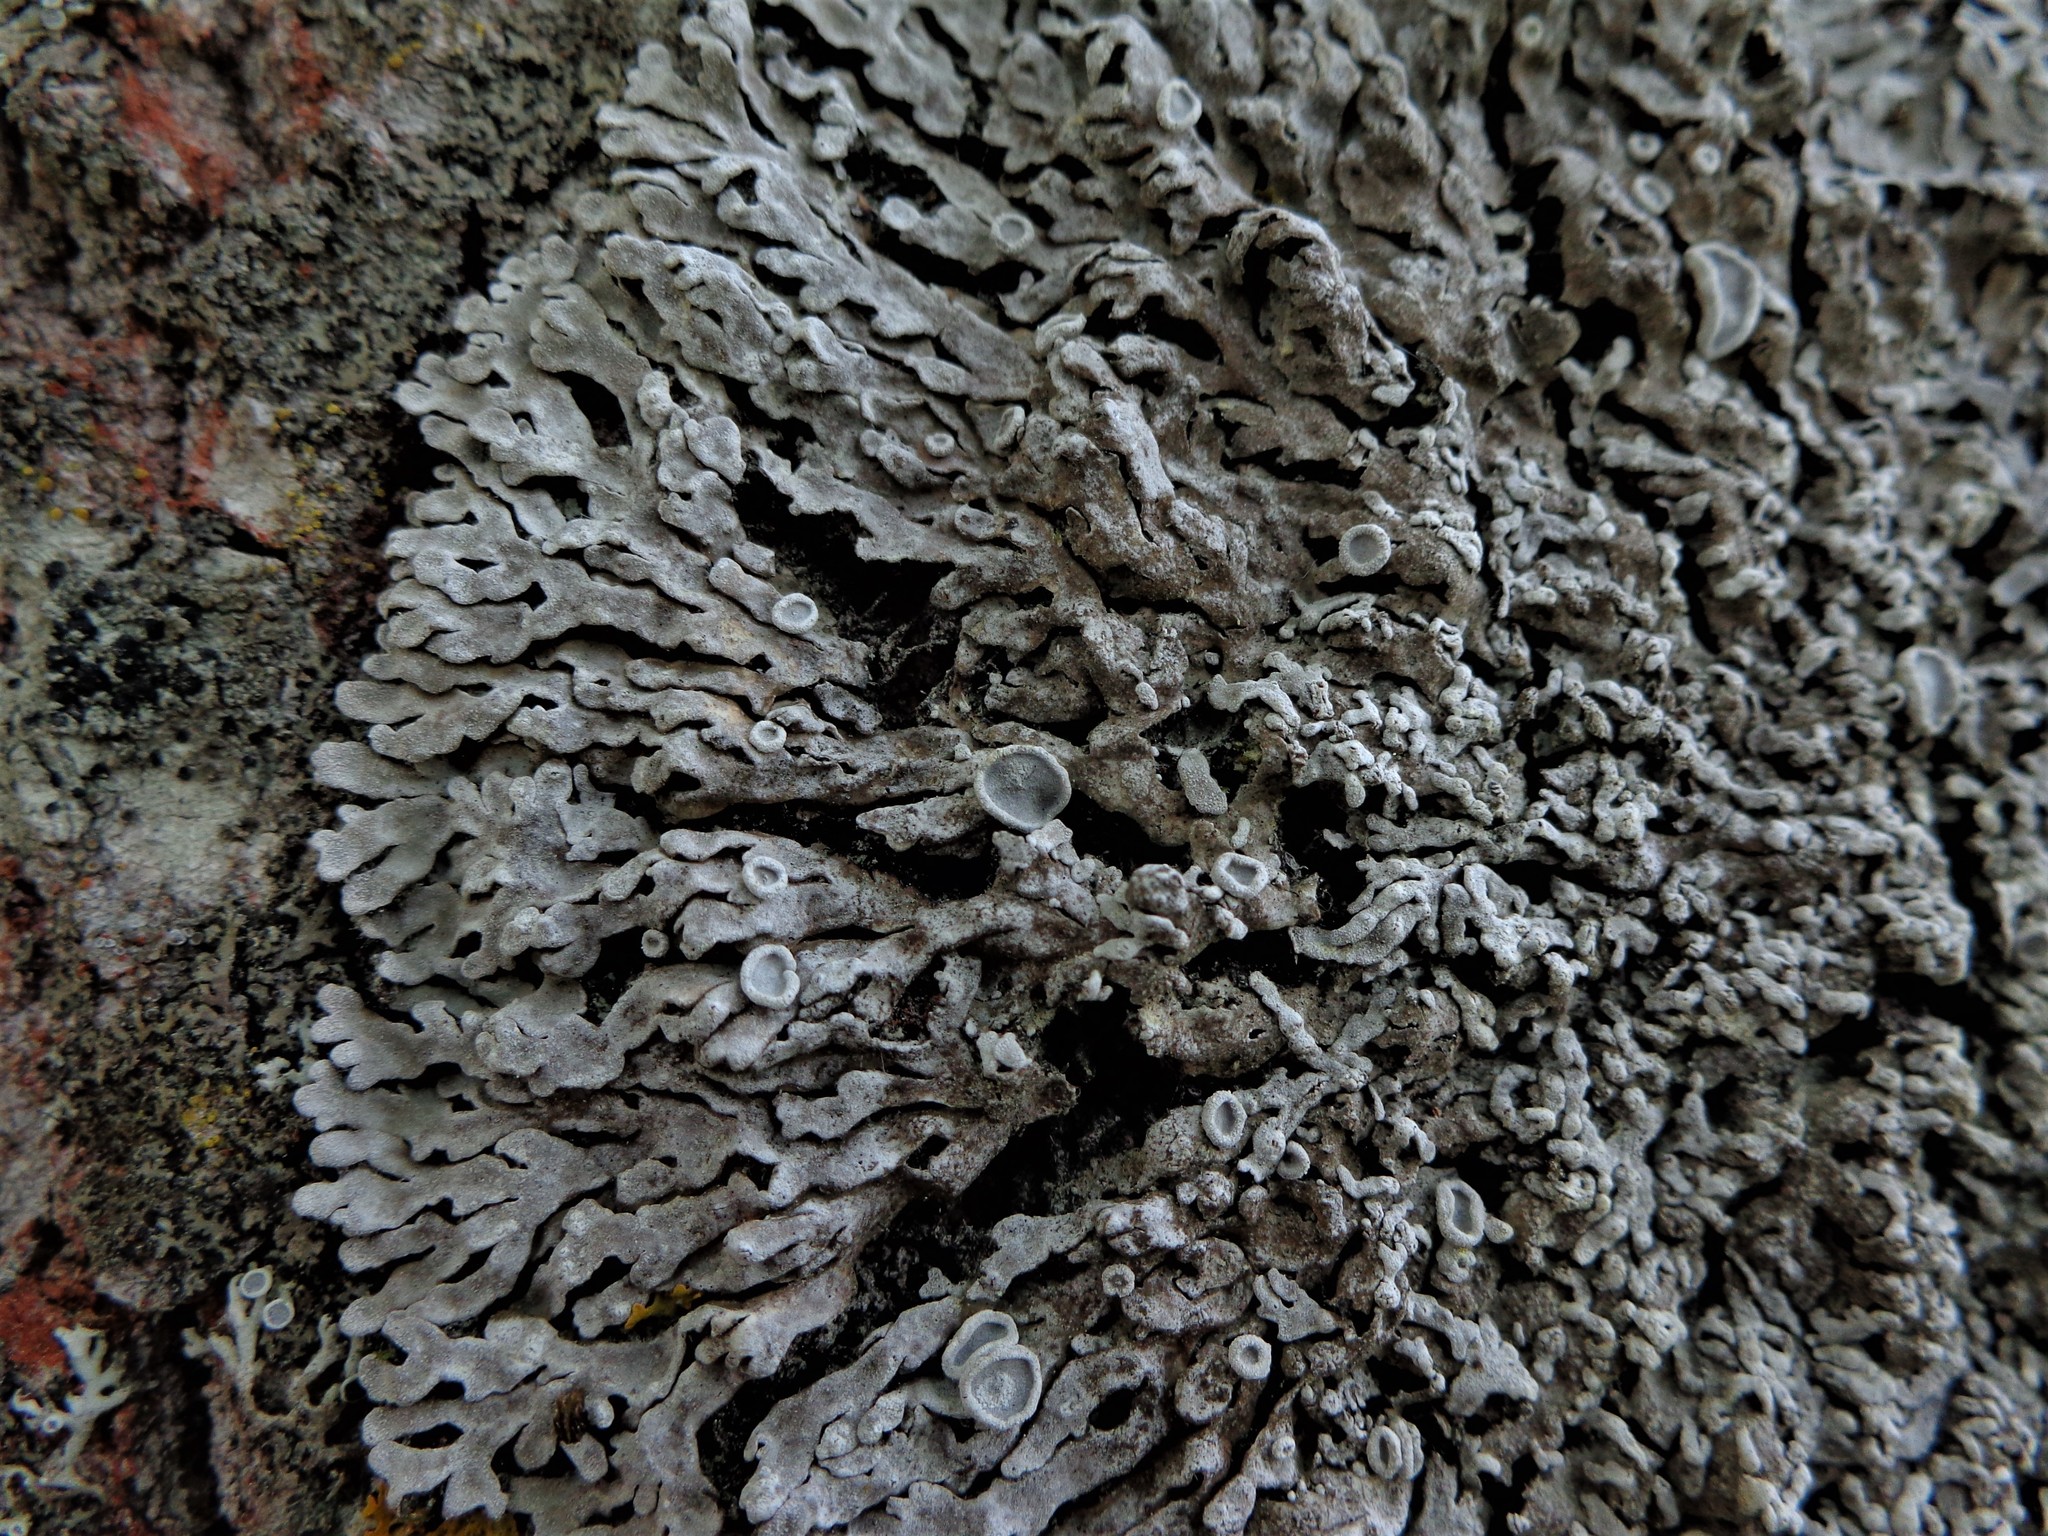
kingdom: Fungi
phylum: Ascomycota
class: Lecanoromycetes
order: Caliciales
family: Physciaceae
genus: Physconia
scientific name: Physconia distorta
